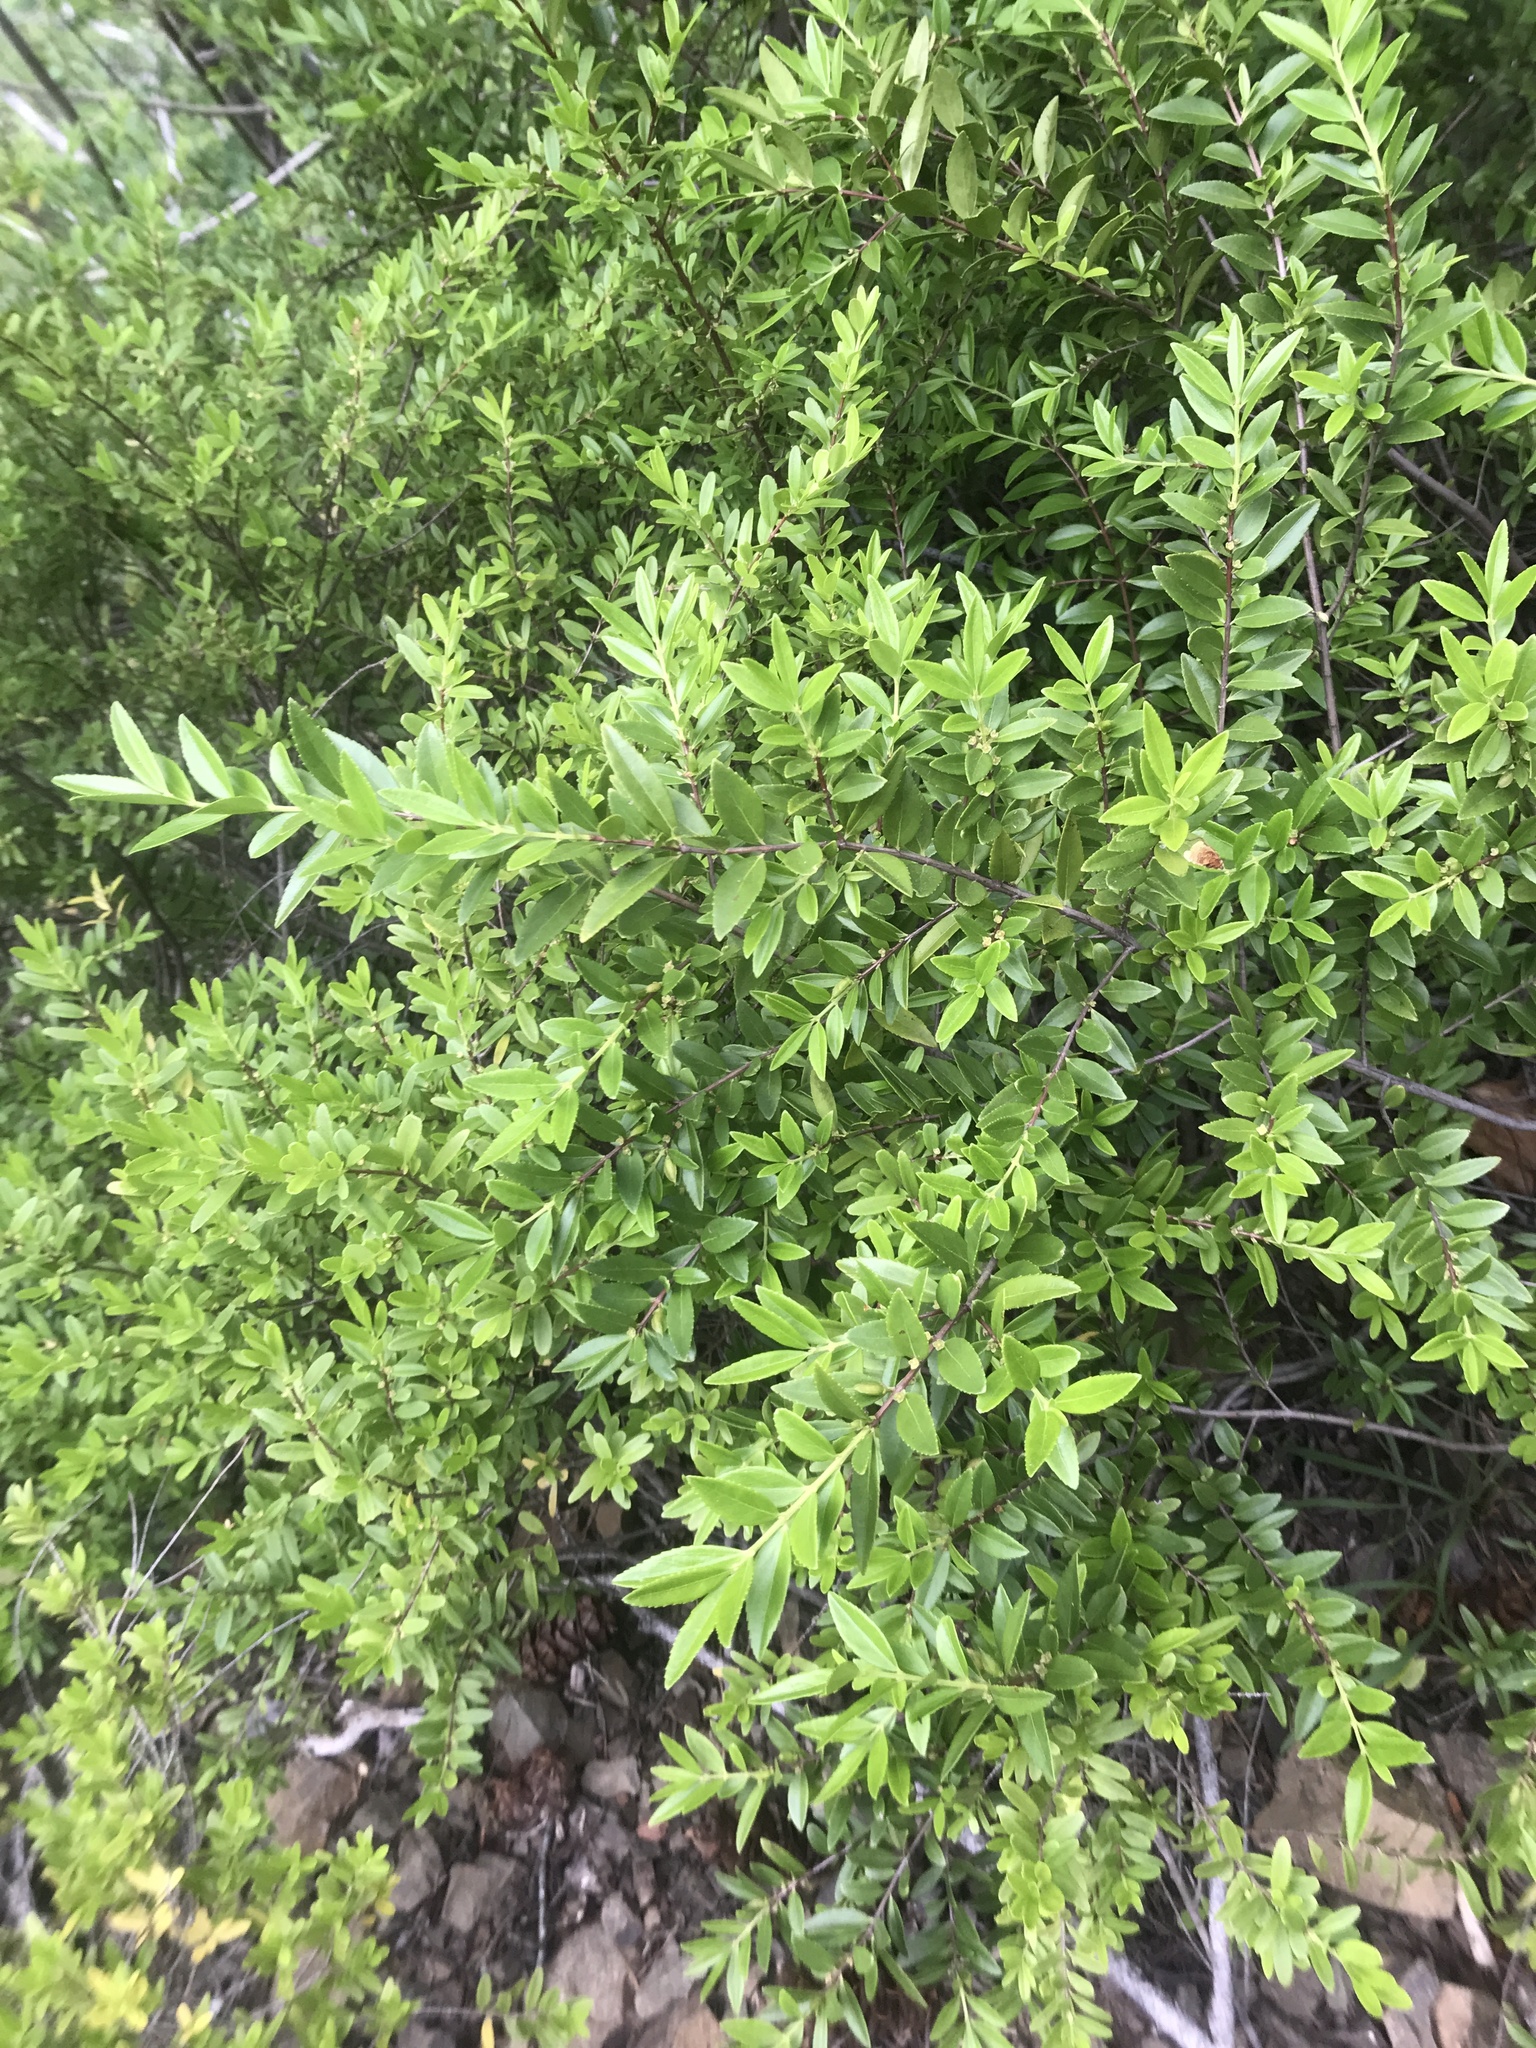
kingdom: Plantae
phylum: Tracheophyta
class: Magnoliopsida
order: Celastrales
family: Celastraceae
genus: Paxistima
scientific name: Paxistima myrsinites
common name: Mountain-lover
